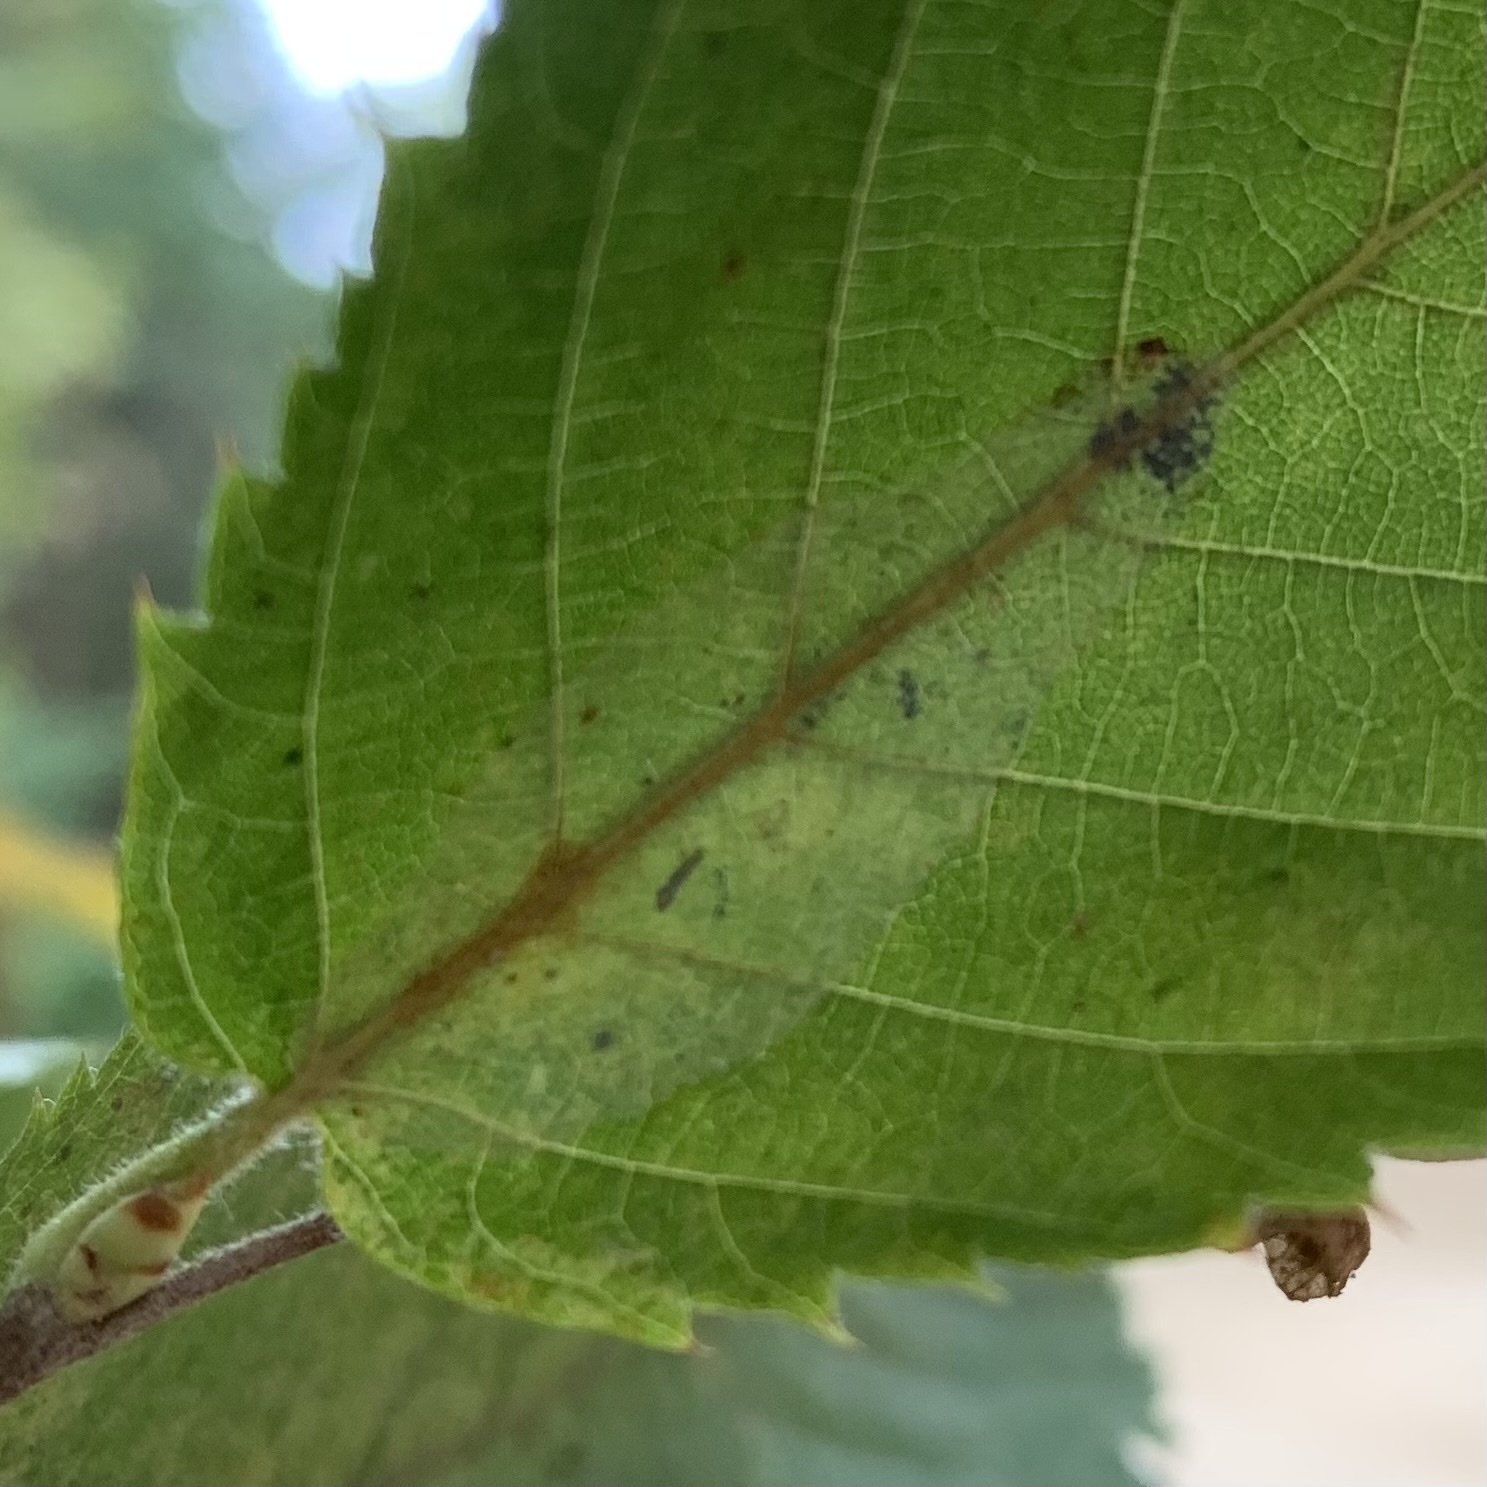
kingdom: Animalia
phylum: Arthropoda
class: Insecta
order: Lepidoptera
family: Gracillariidae
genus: Phyllonorycter
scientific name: Phyllonorycter tritaenianella
